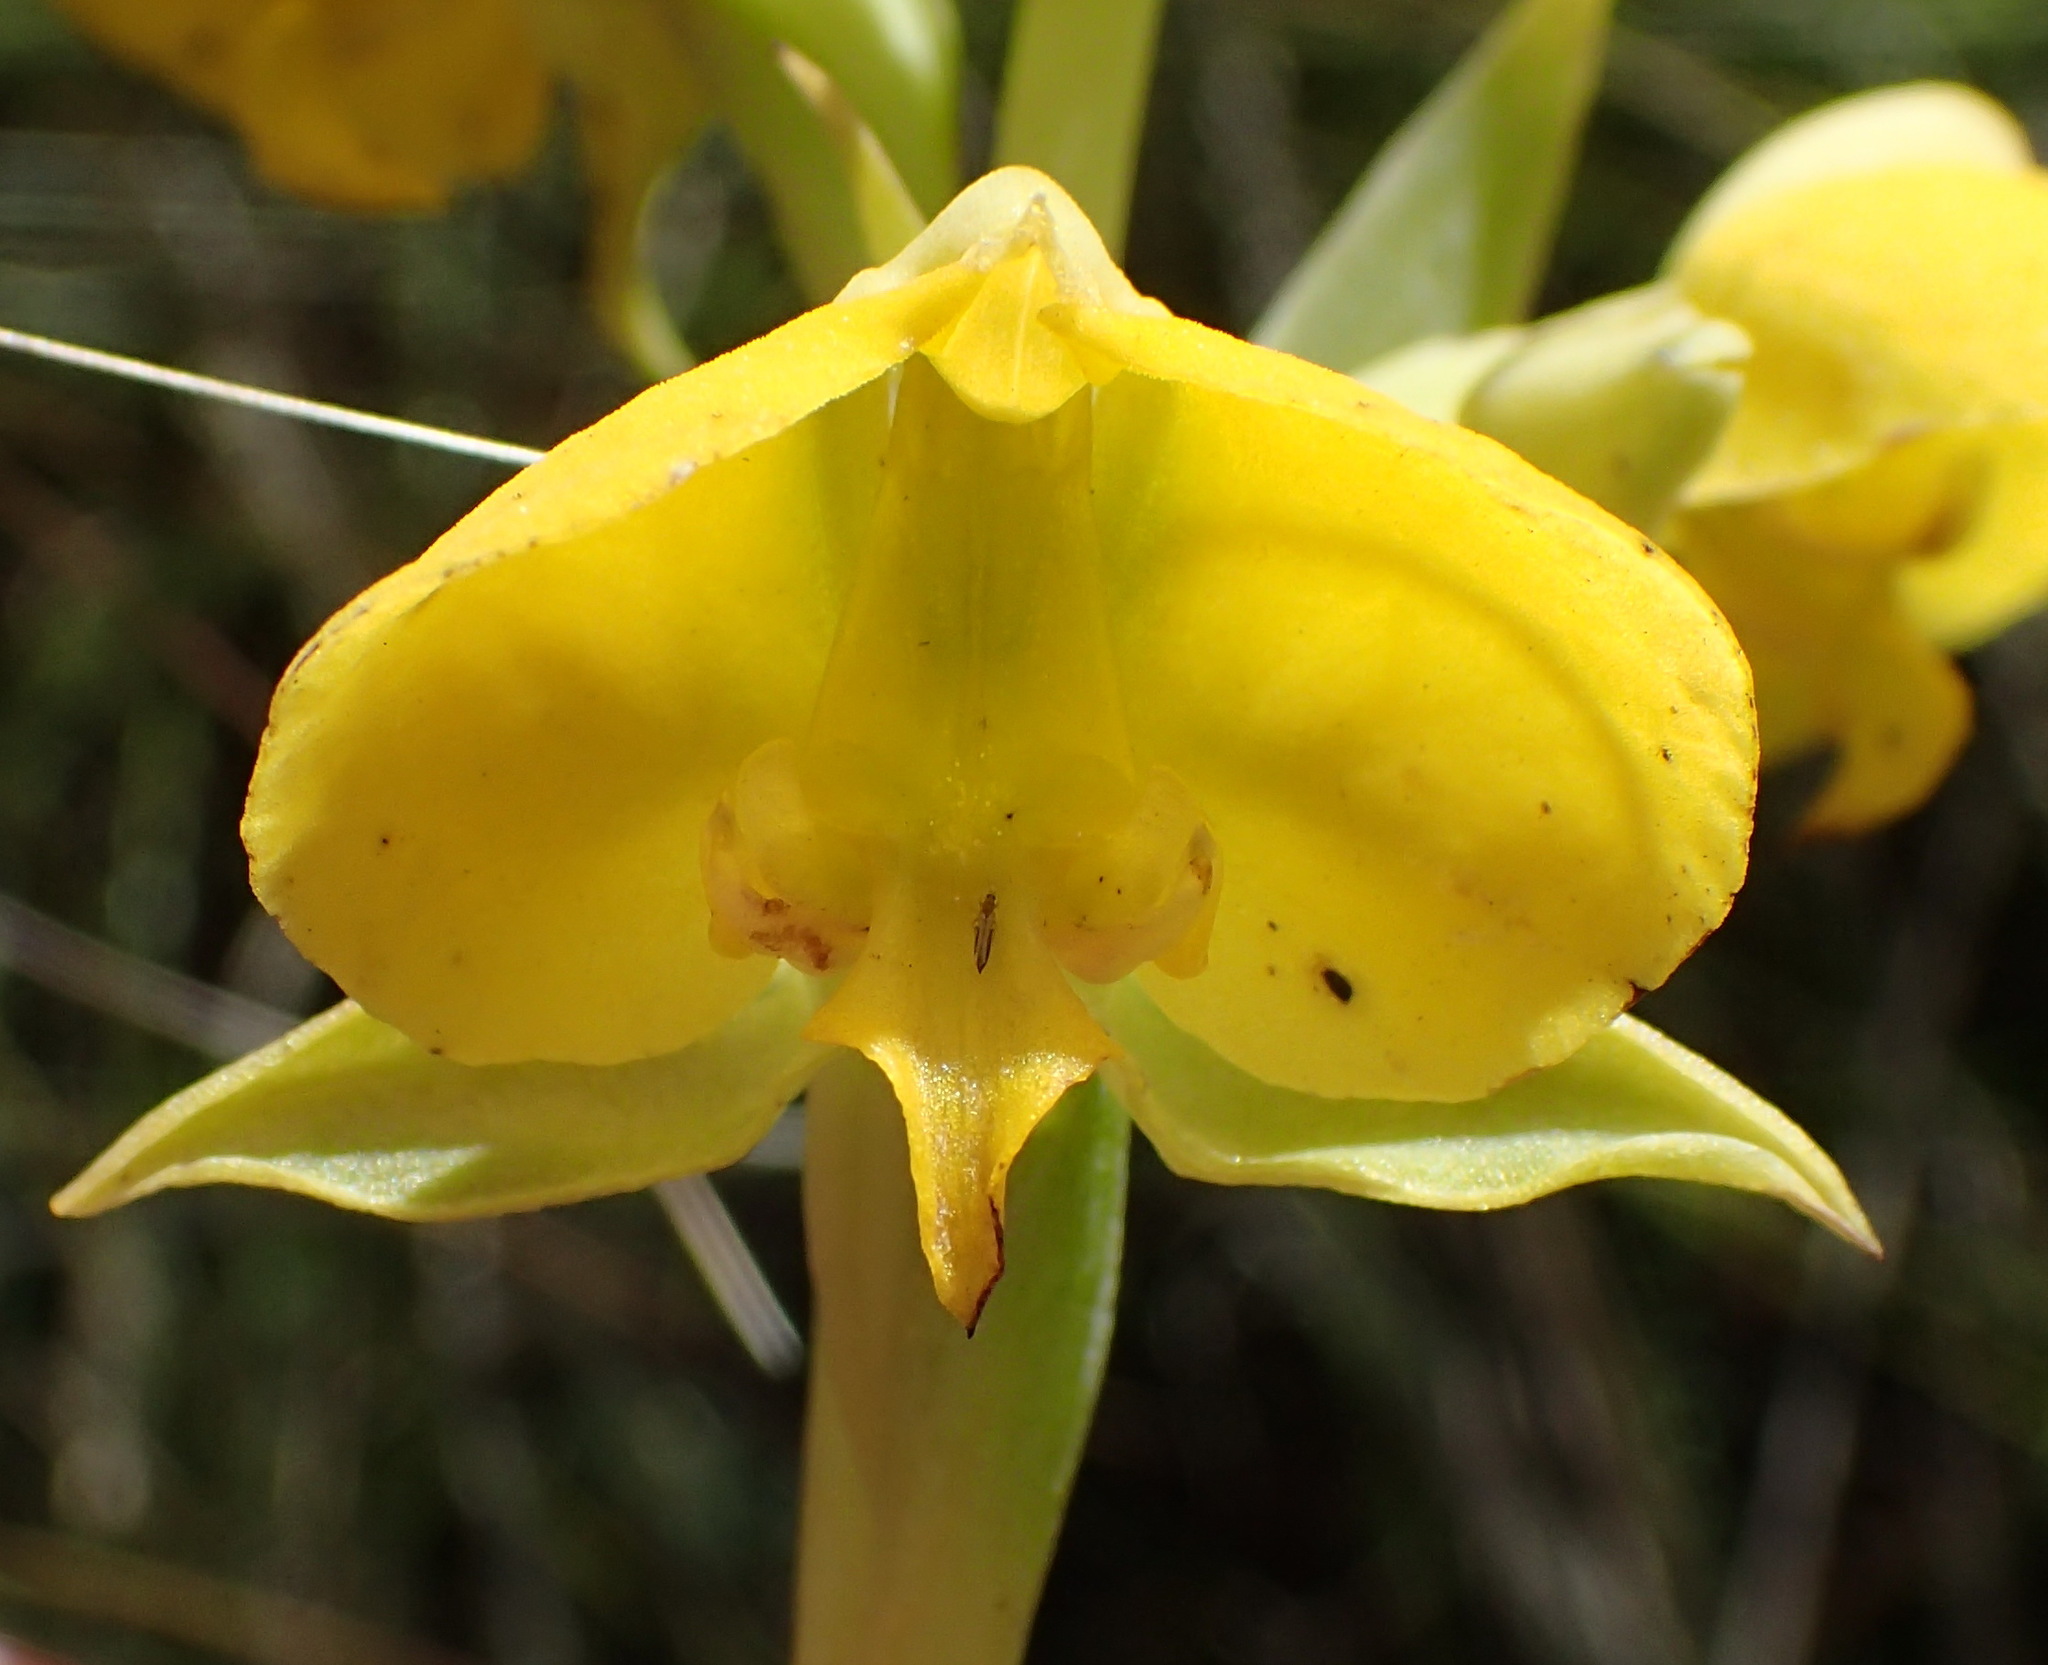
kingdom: Plantae
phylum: Tracheophyta
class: Liliopsida
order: Asparagales
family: Orchidaceae
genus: Pterygodium
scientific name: Pterygodium acutifolium
